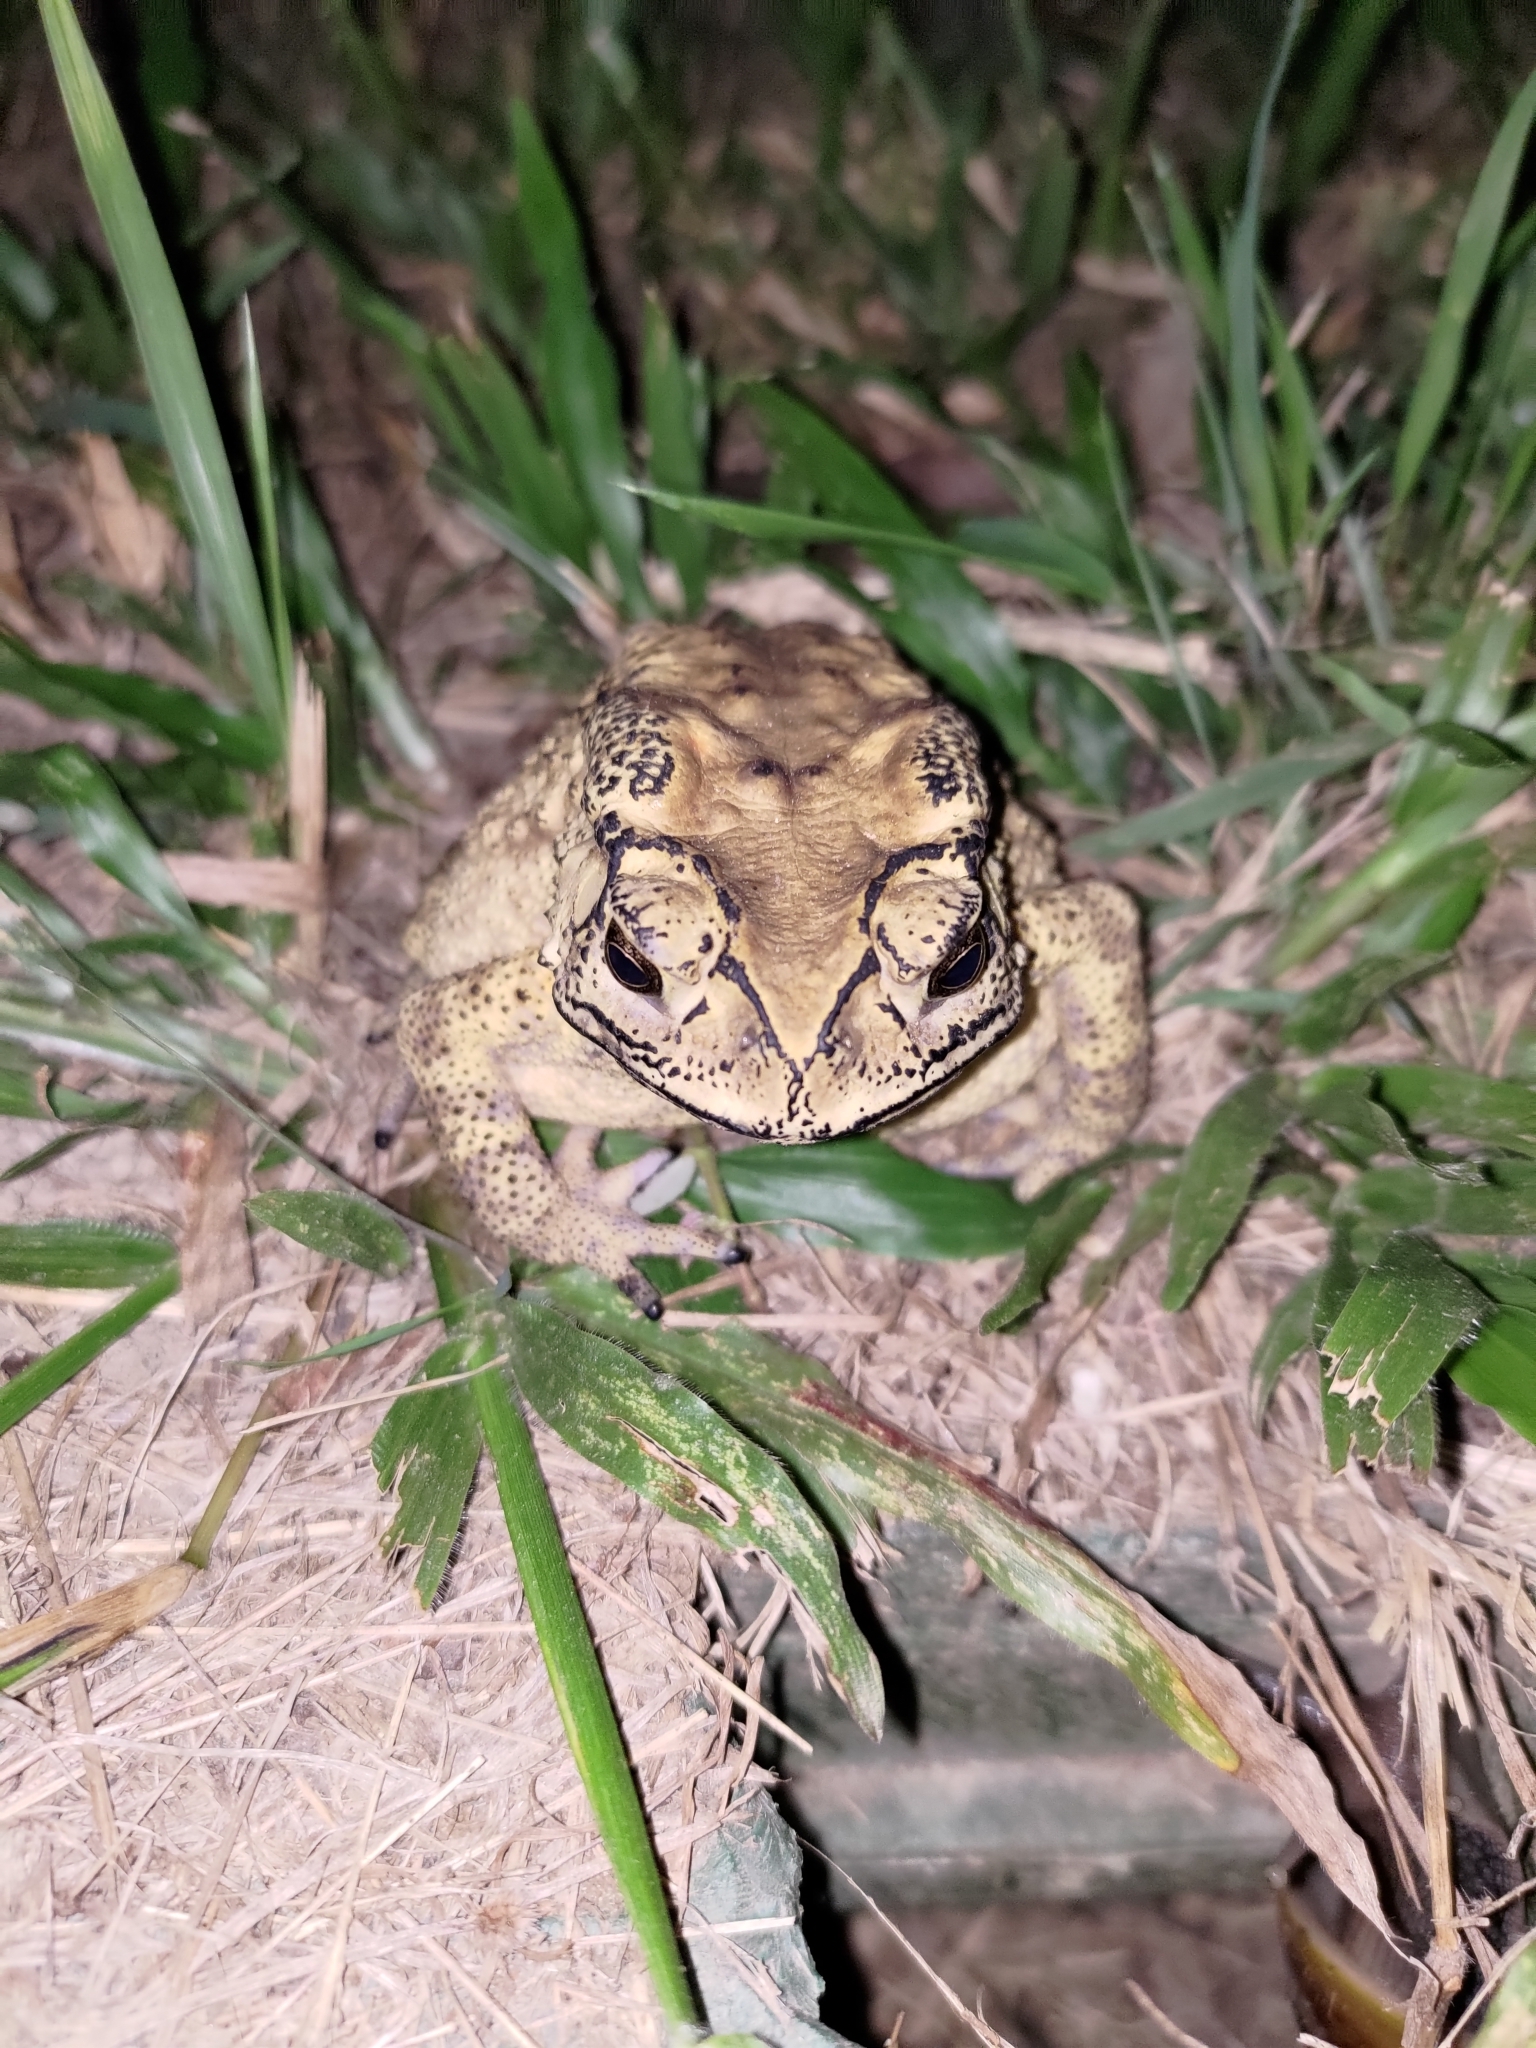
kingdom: Animalia
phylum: Chordata
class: Amphibia
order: Anura
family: Bufonidae
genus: Duttaphrynus
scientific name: Duttaphrynus melanostictus
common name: Common sunda toad
